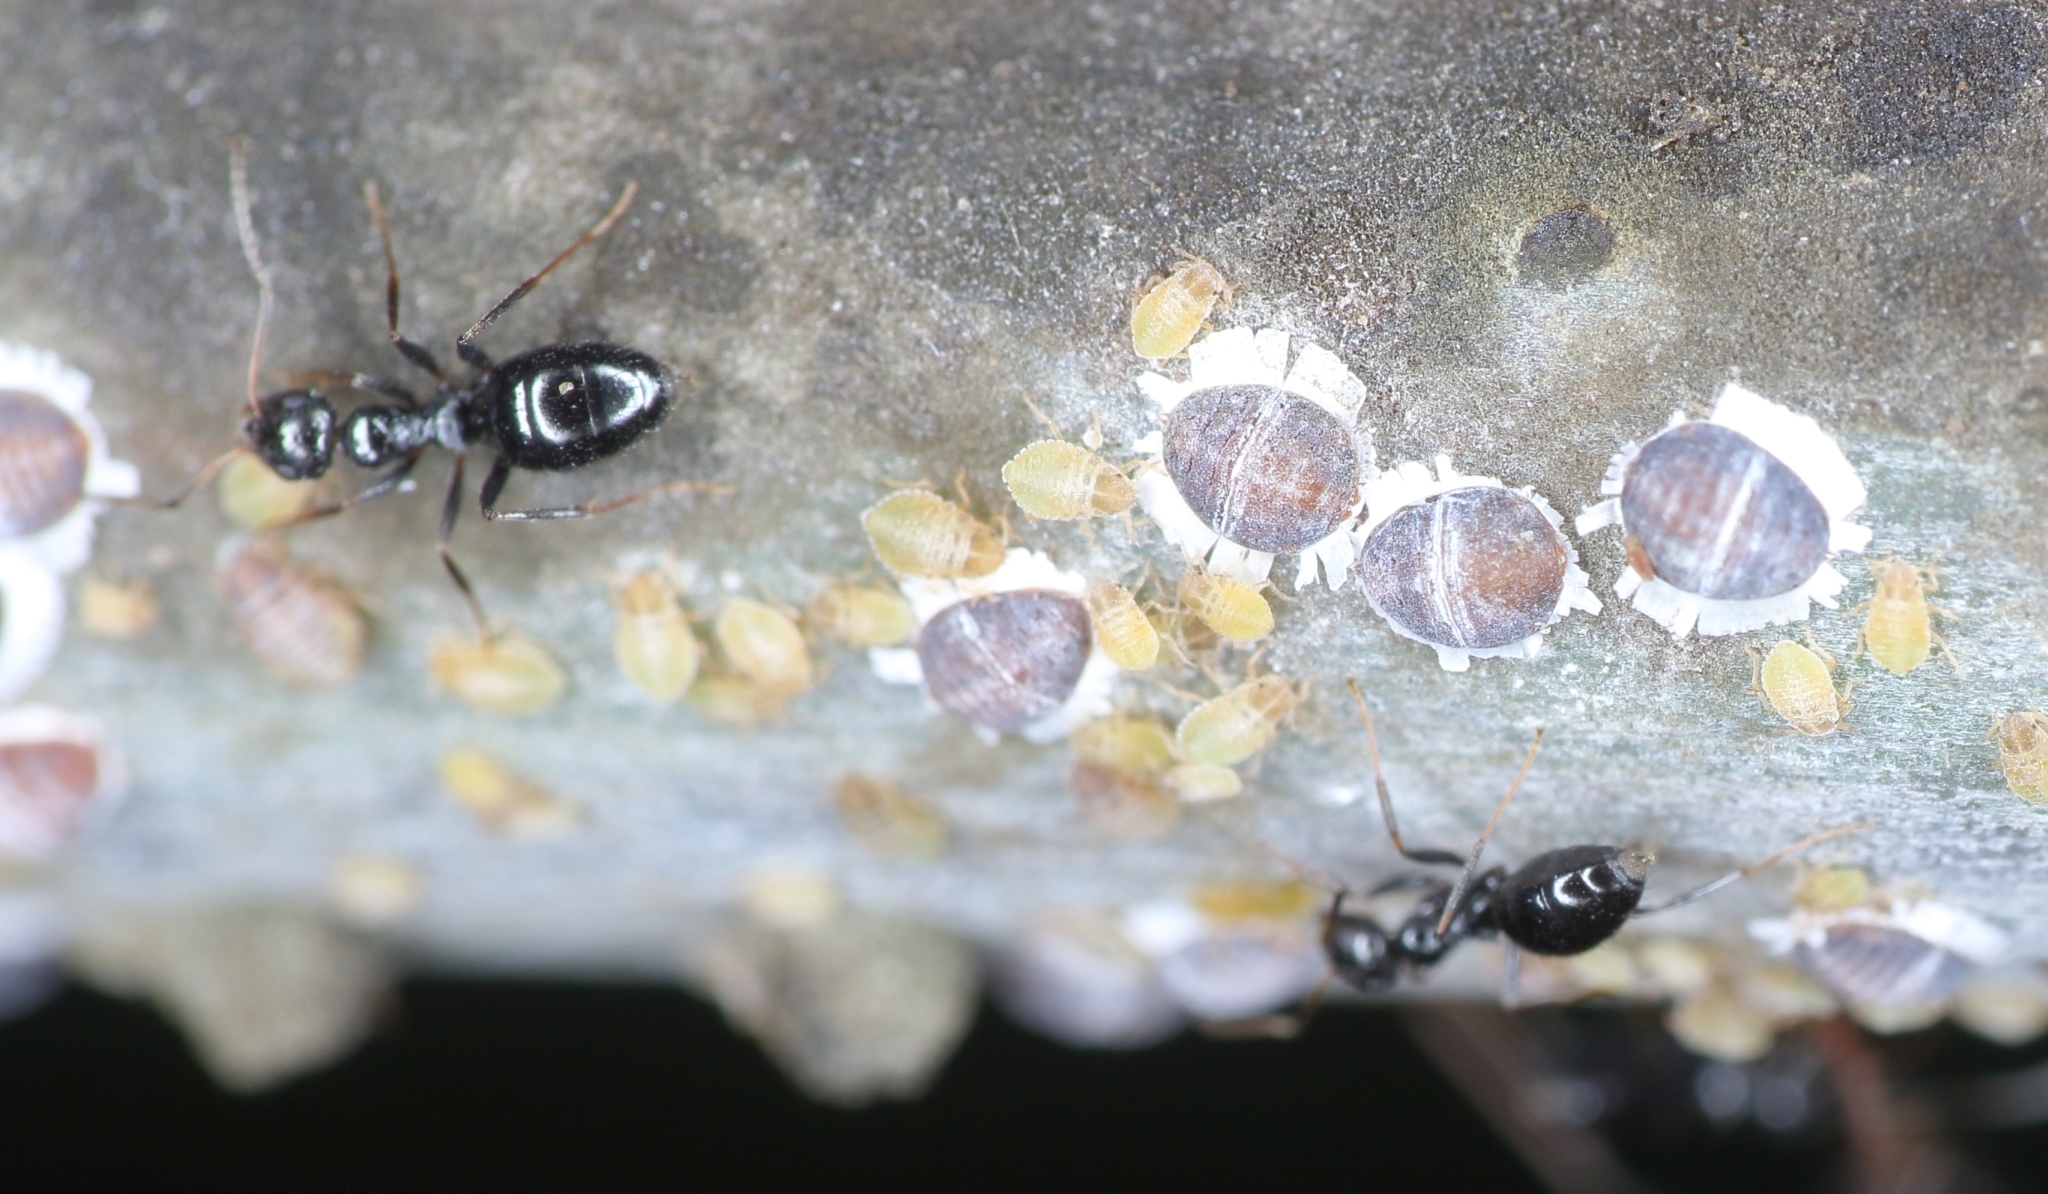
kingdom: Animalia
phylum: Arthropoda
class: Insecta
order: Hemiptera
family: Aphididae
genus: Cerataphis
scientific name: Cerataphis brasiliensis
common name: Palm aphid
